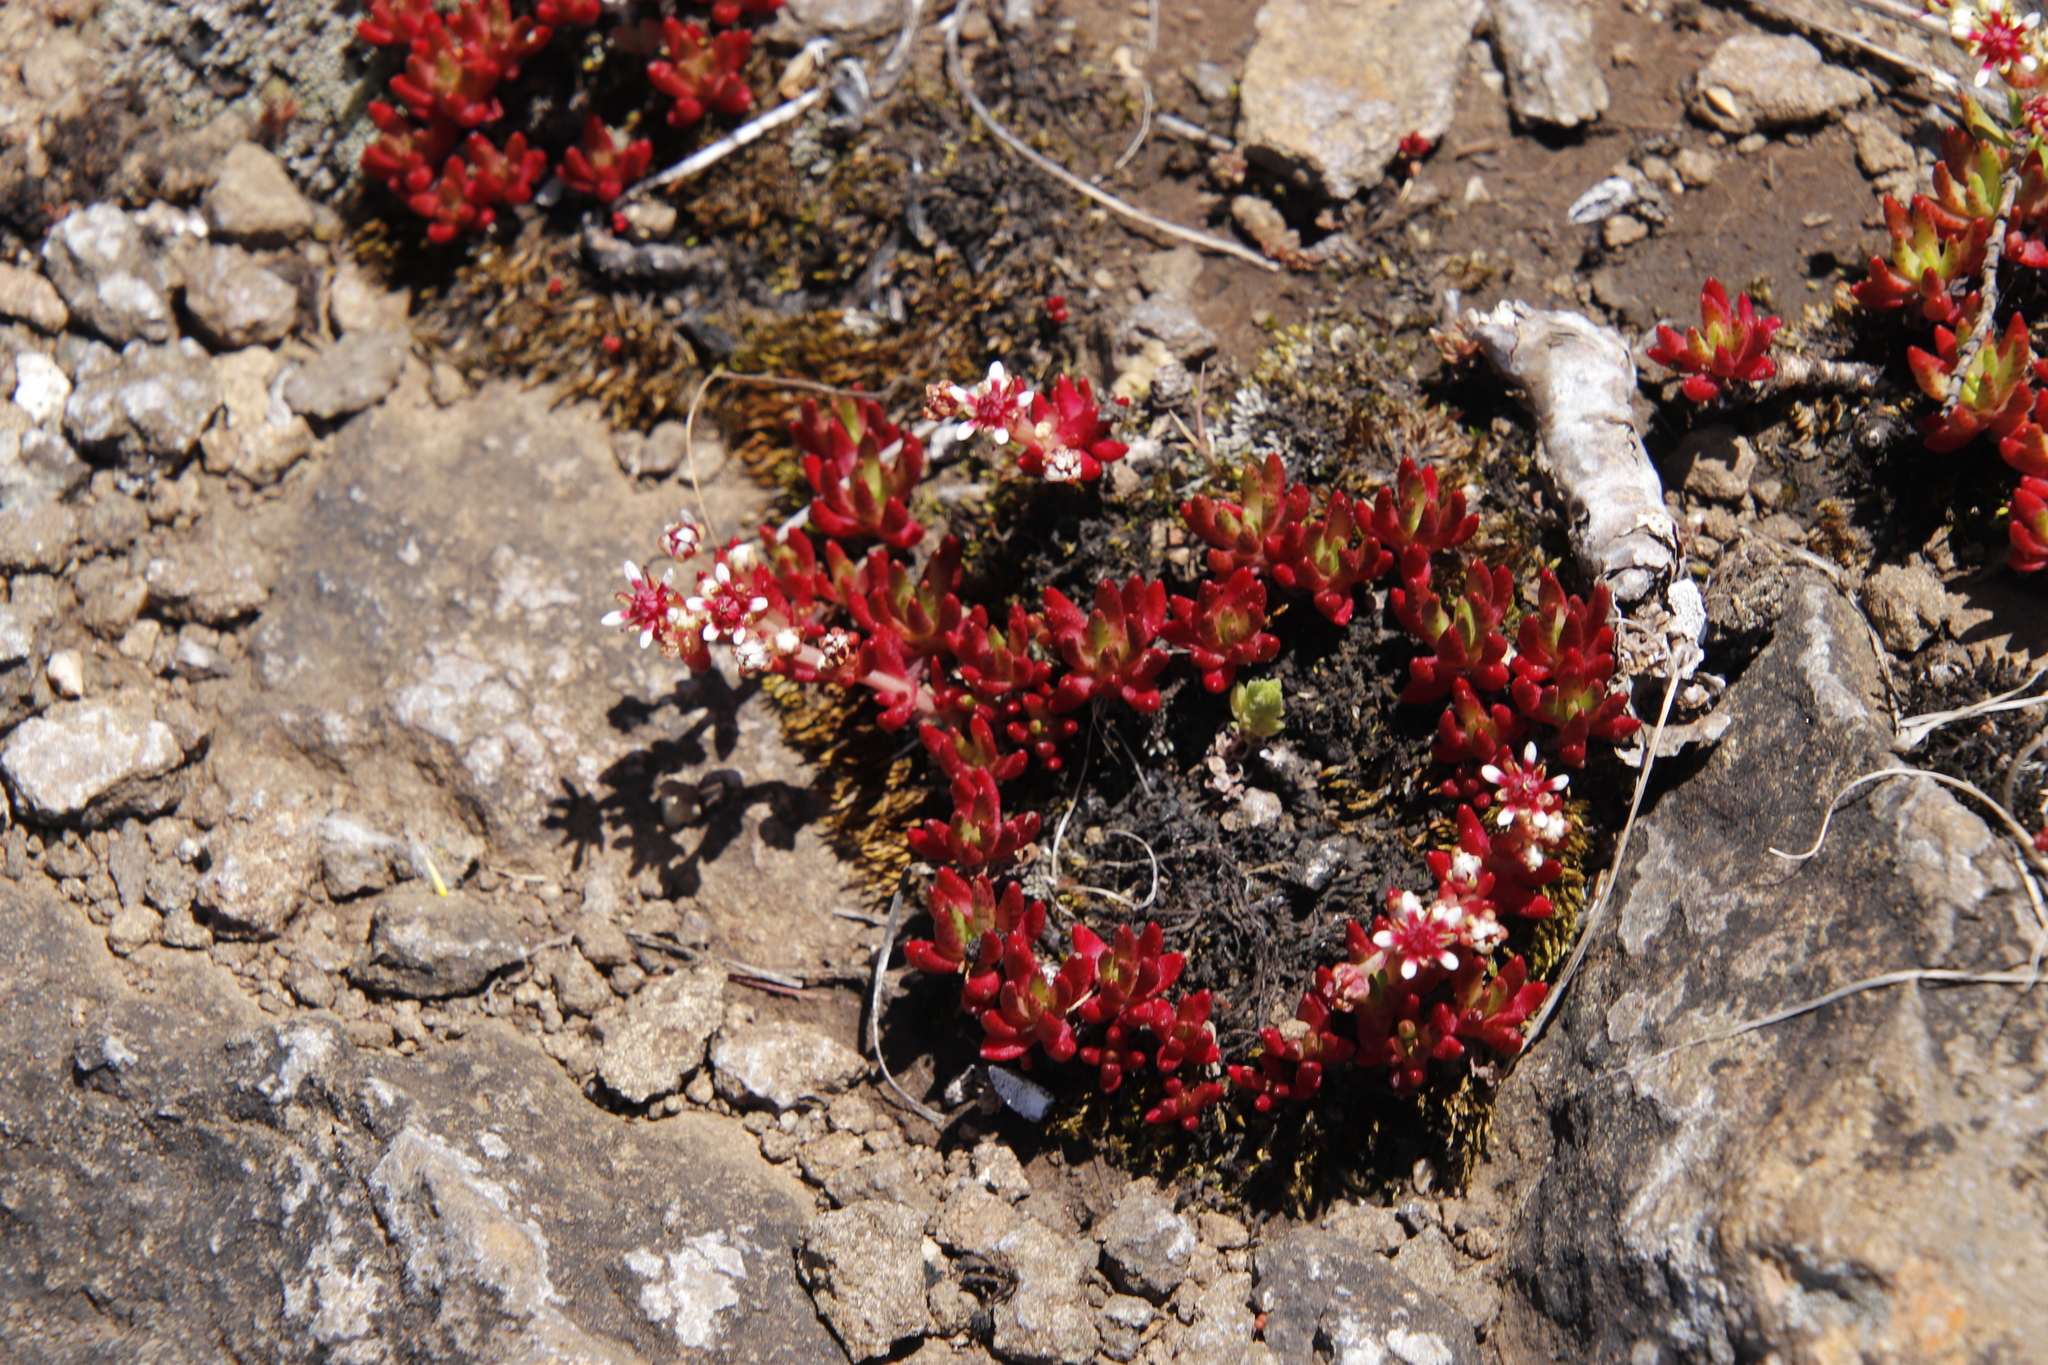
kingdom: Plantae
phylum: Tracheophyta
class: Magnoliopsida
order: Saxifragales
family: Crassulaceae
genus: Crassula
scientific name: Crassula peploides
